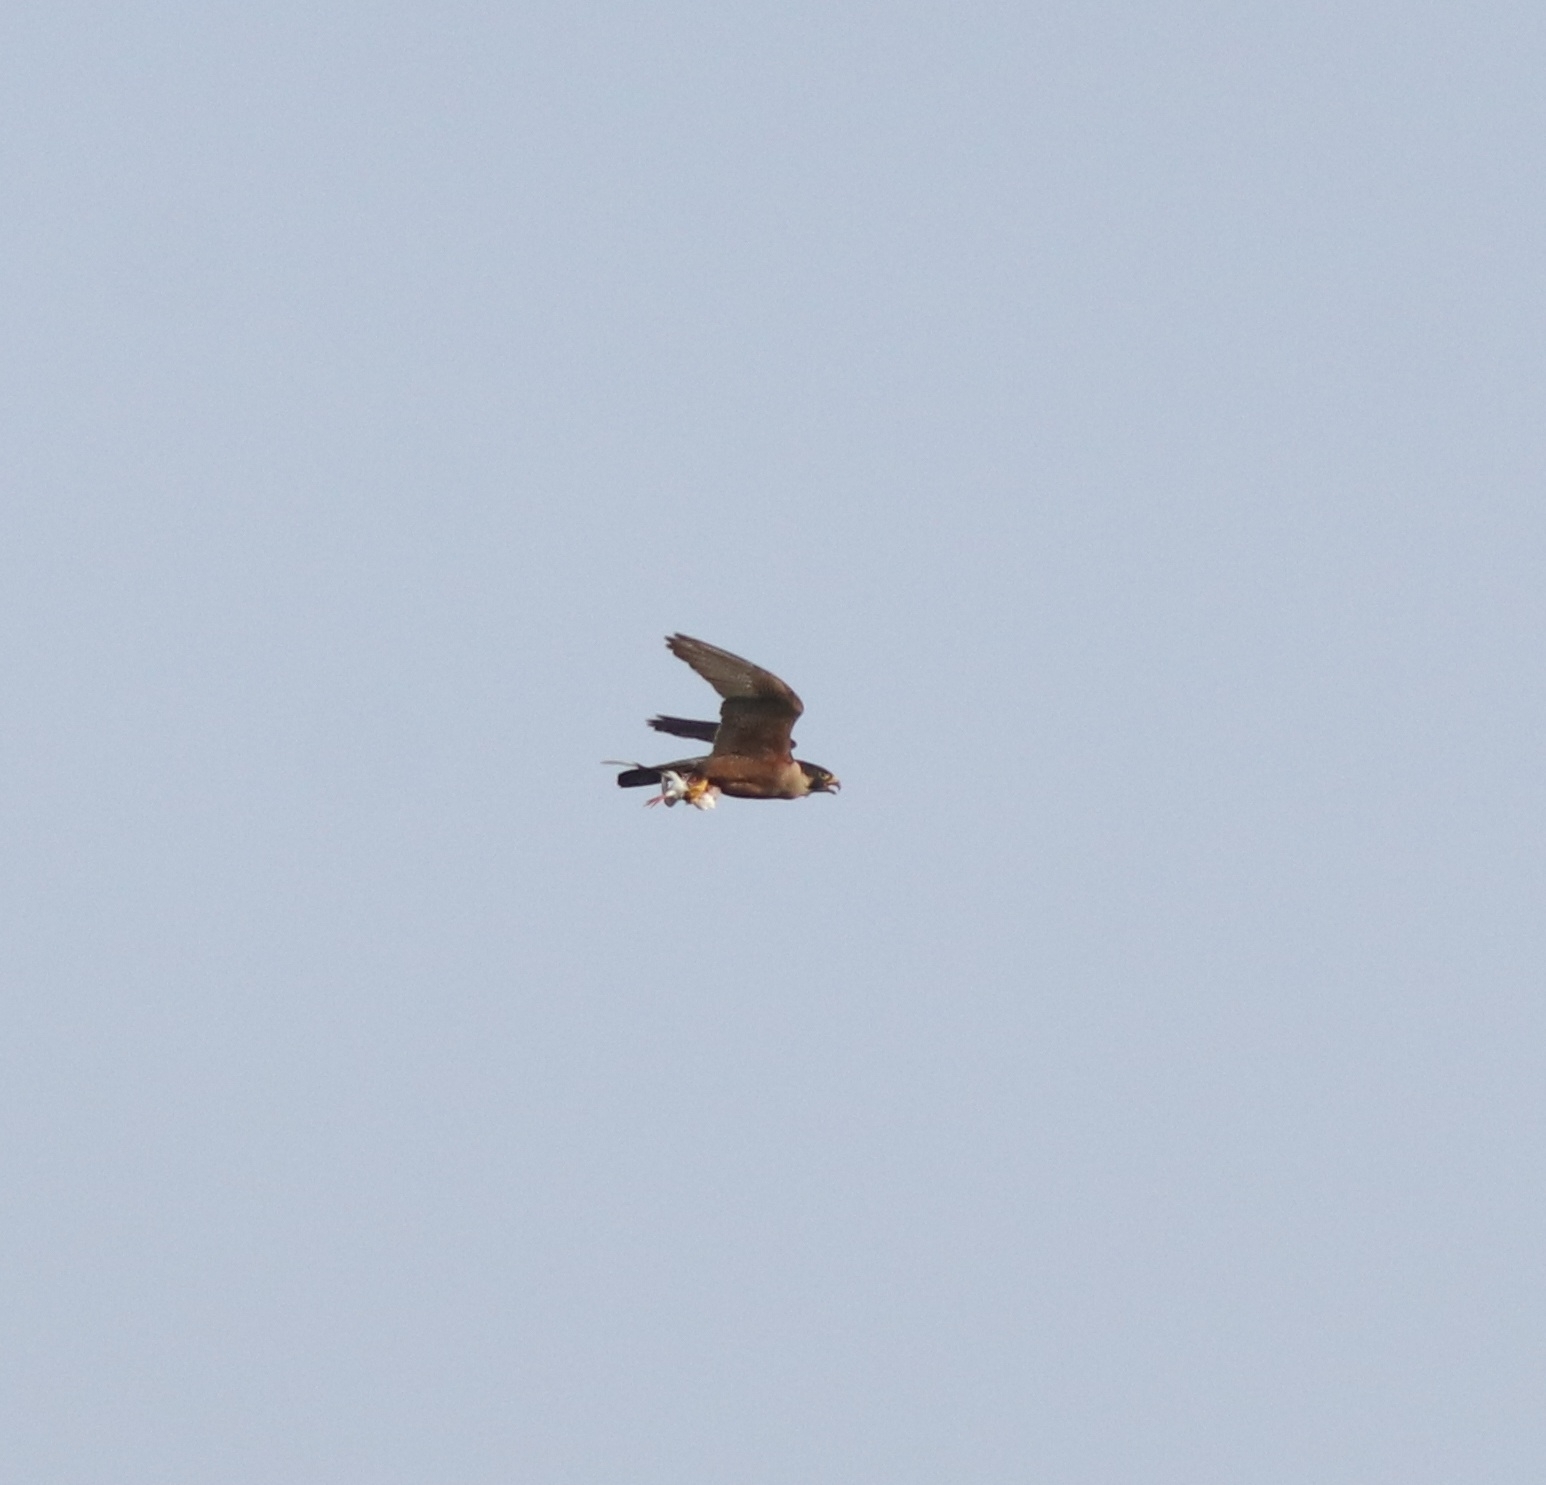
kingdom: Animalia
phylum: Chordata
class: Aves
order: Falconiformes
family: Falconidae
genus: Falco
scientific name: Falco peregrinus
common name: Peregrine falcon
